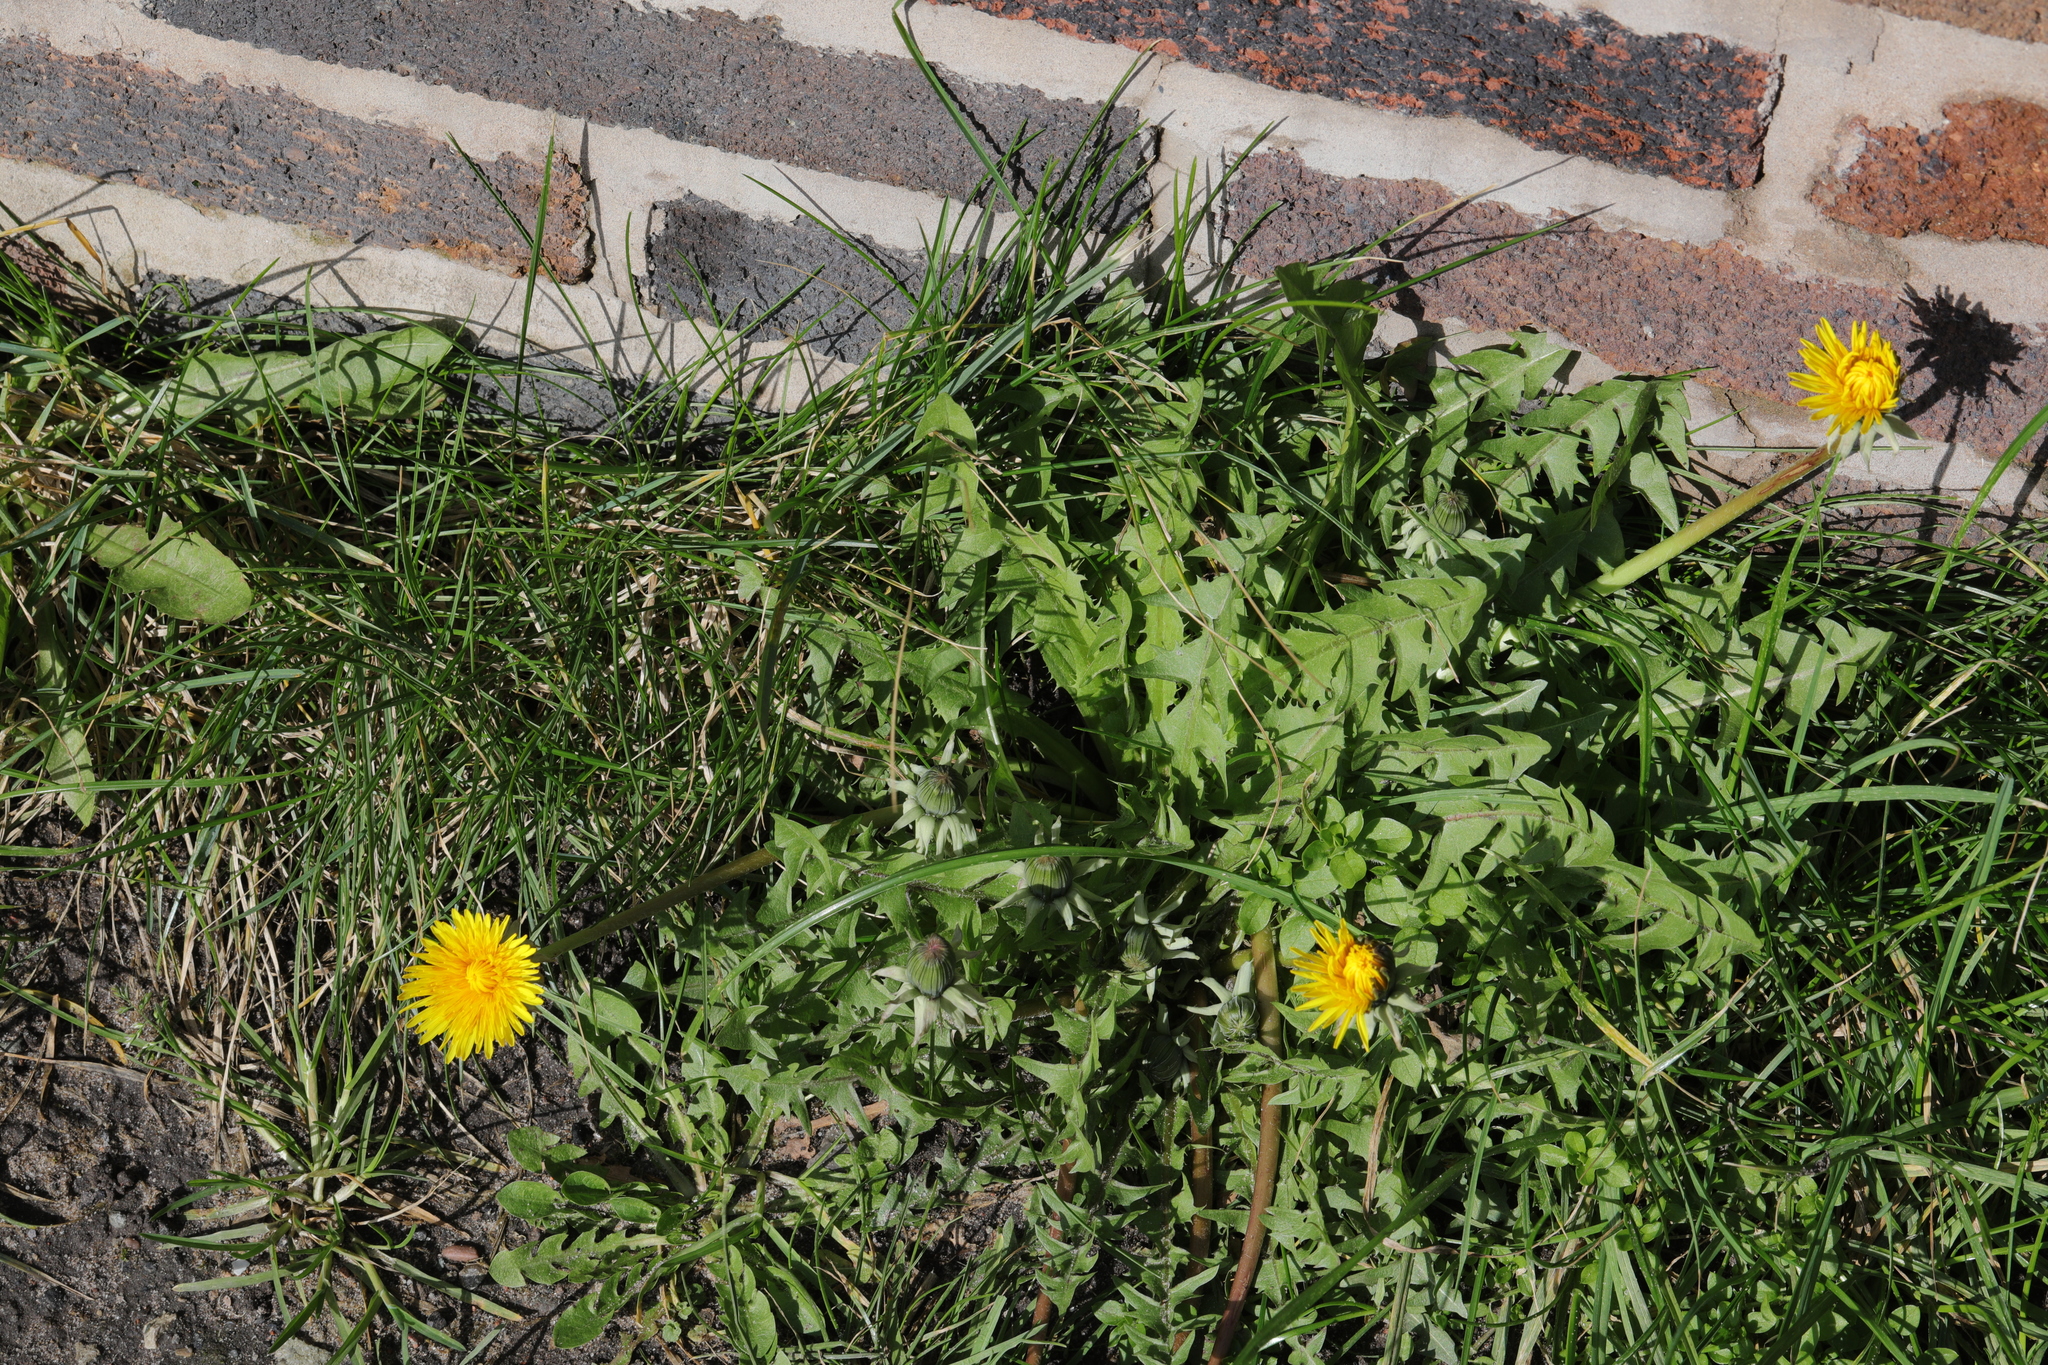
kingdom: Plantae
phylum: Tracheophyta
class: Magnoliopsida
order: Asterales
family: Asteraceae
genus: Taraxacum
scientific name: Taraxacum officinale
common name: Common dandelion
